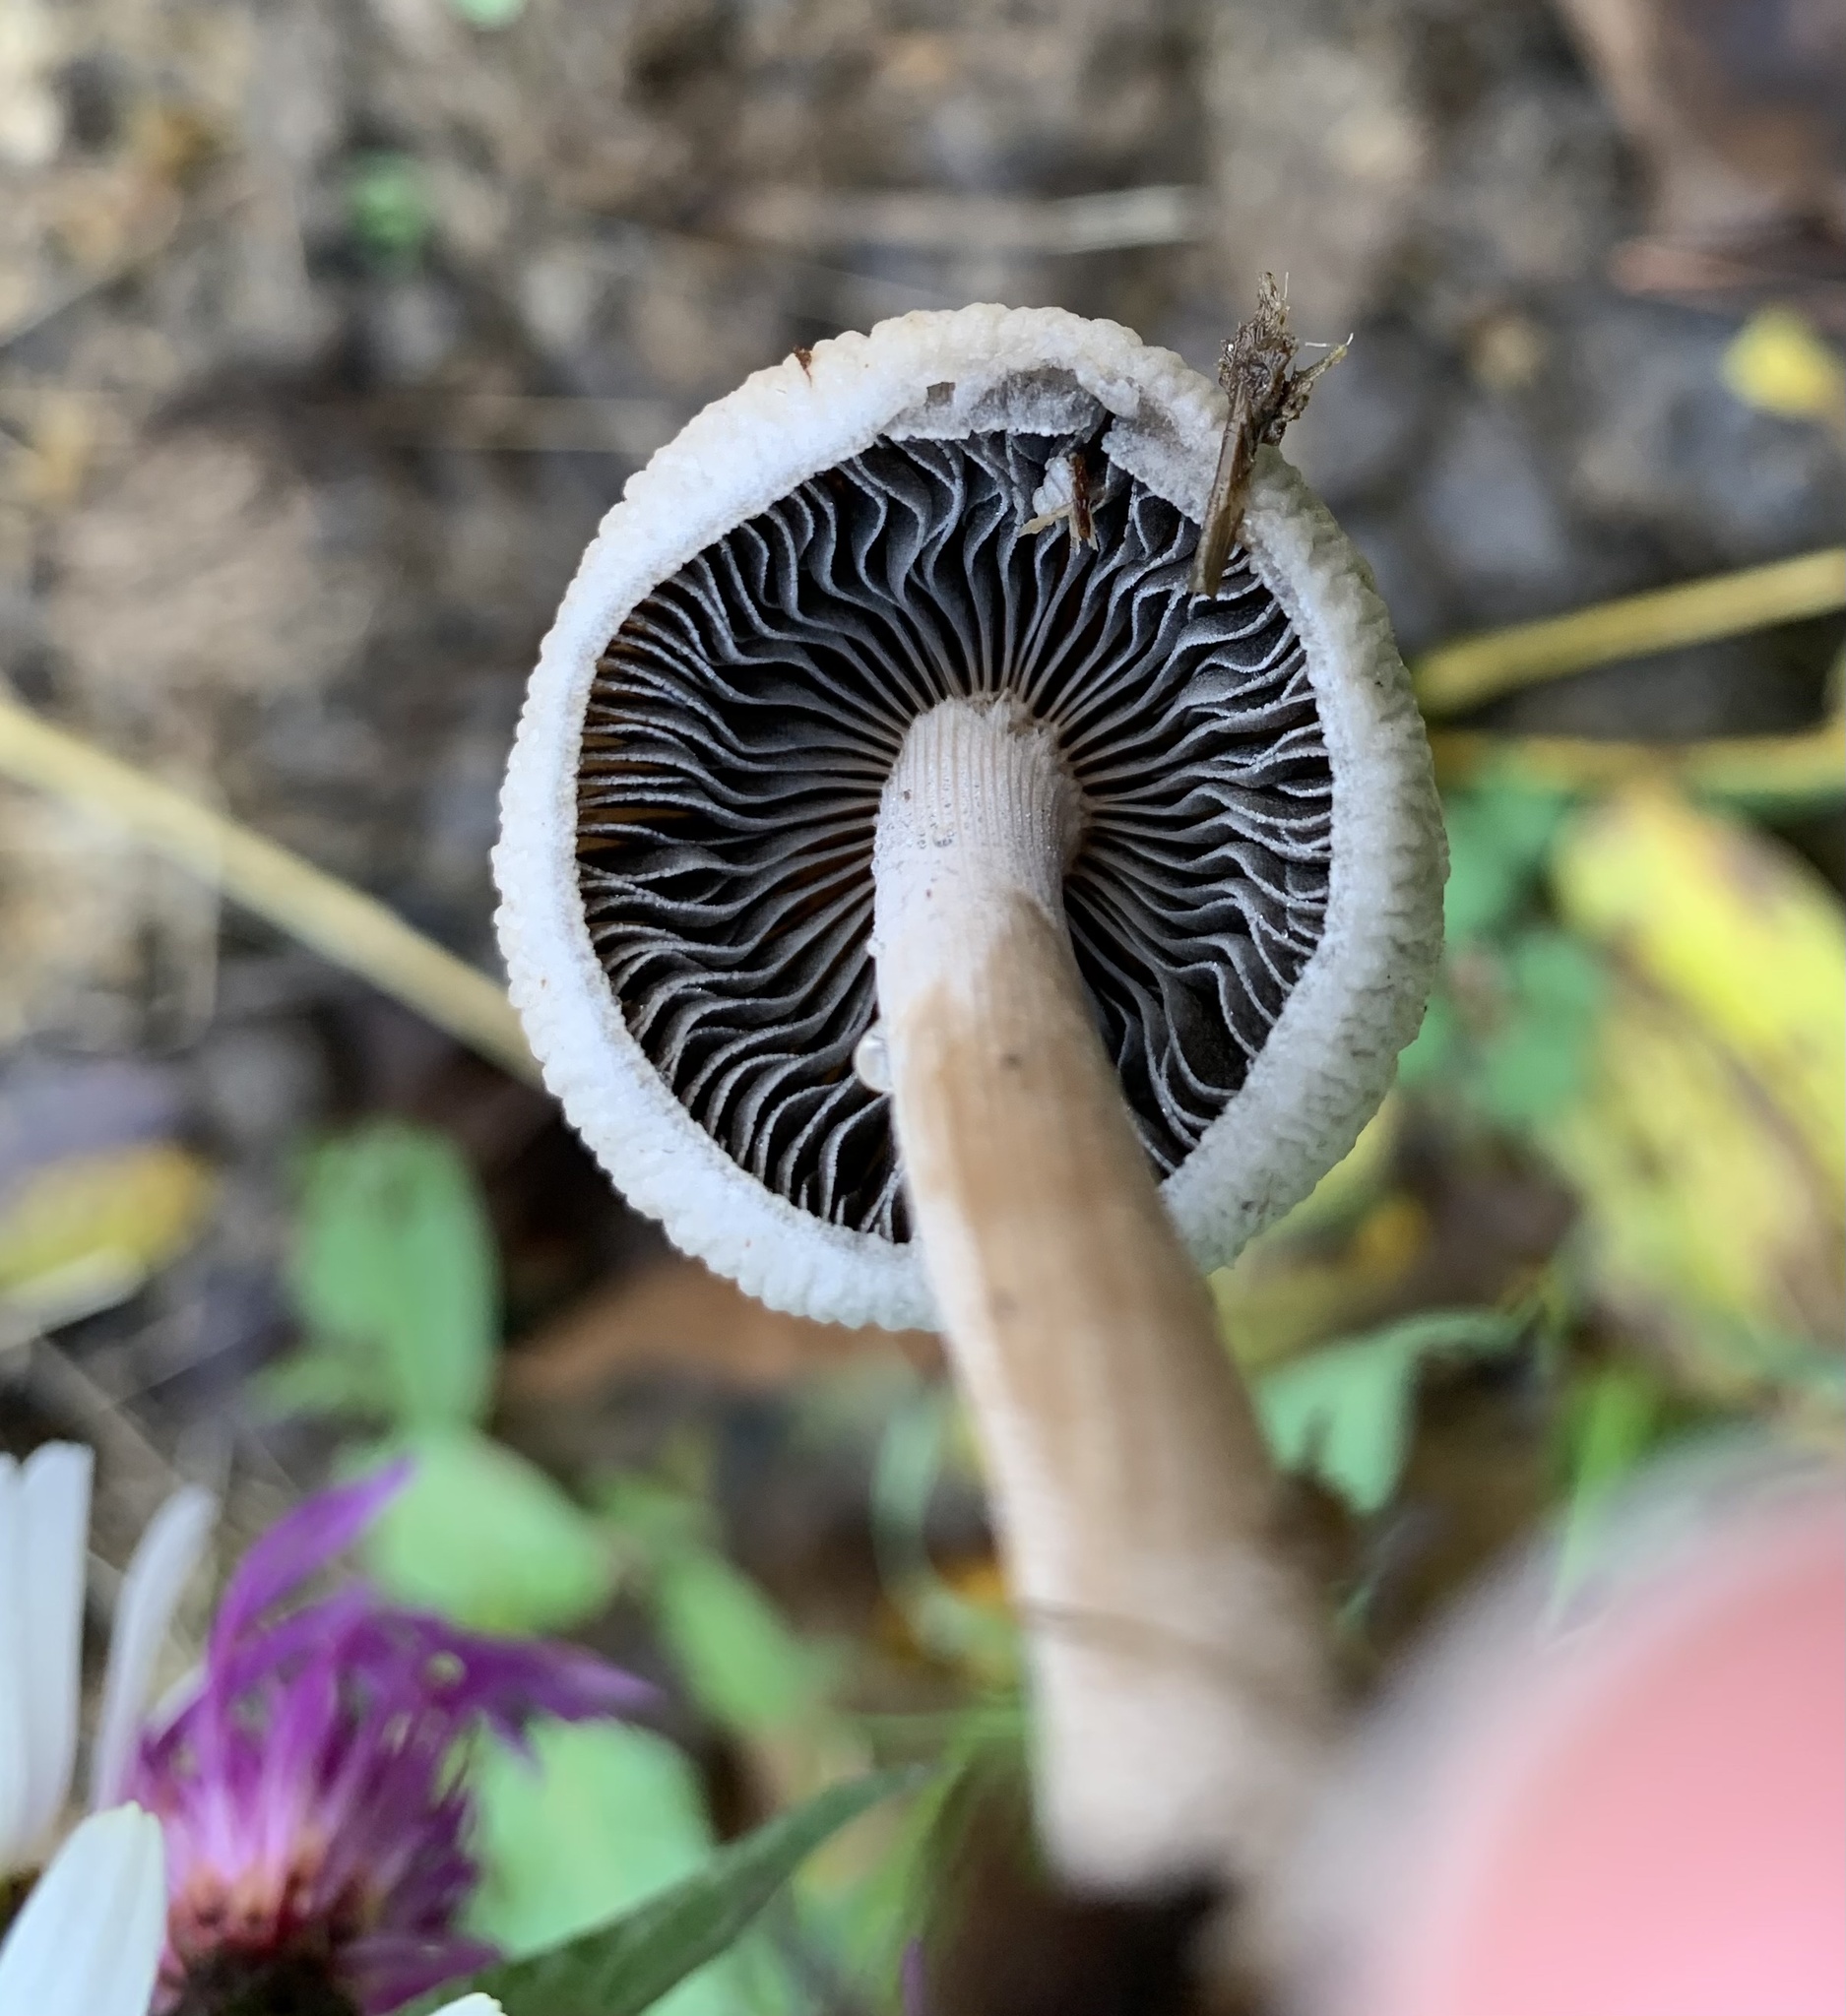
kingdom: Fungi
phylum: Basidiomycota
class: Agaricomycetes
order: Agaricales
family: Bolbitiaceae
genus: Panaeolus
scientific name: Panaeolus antillarum
